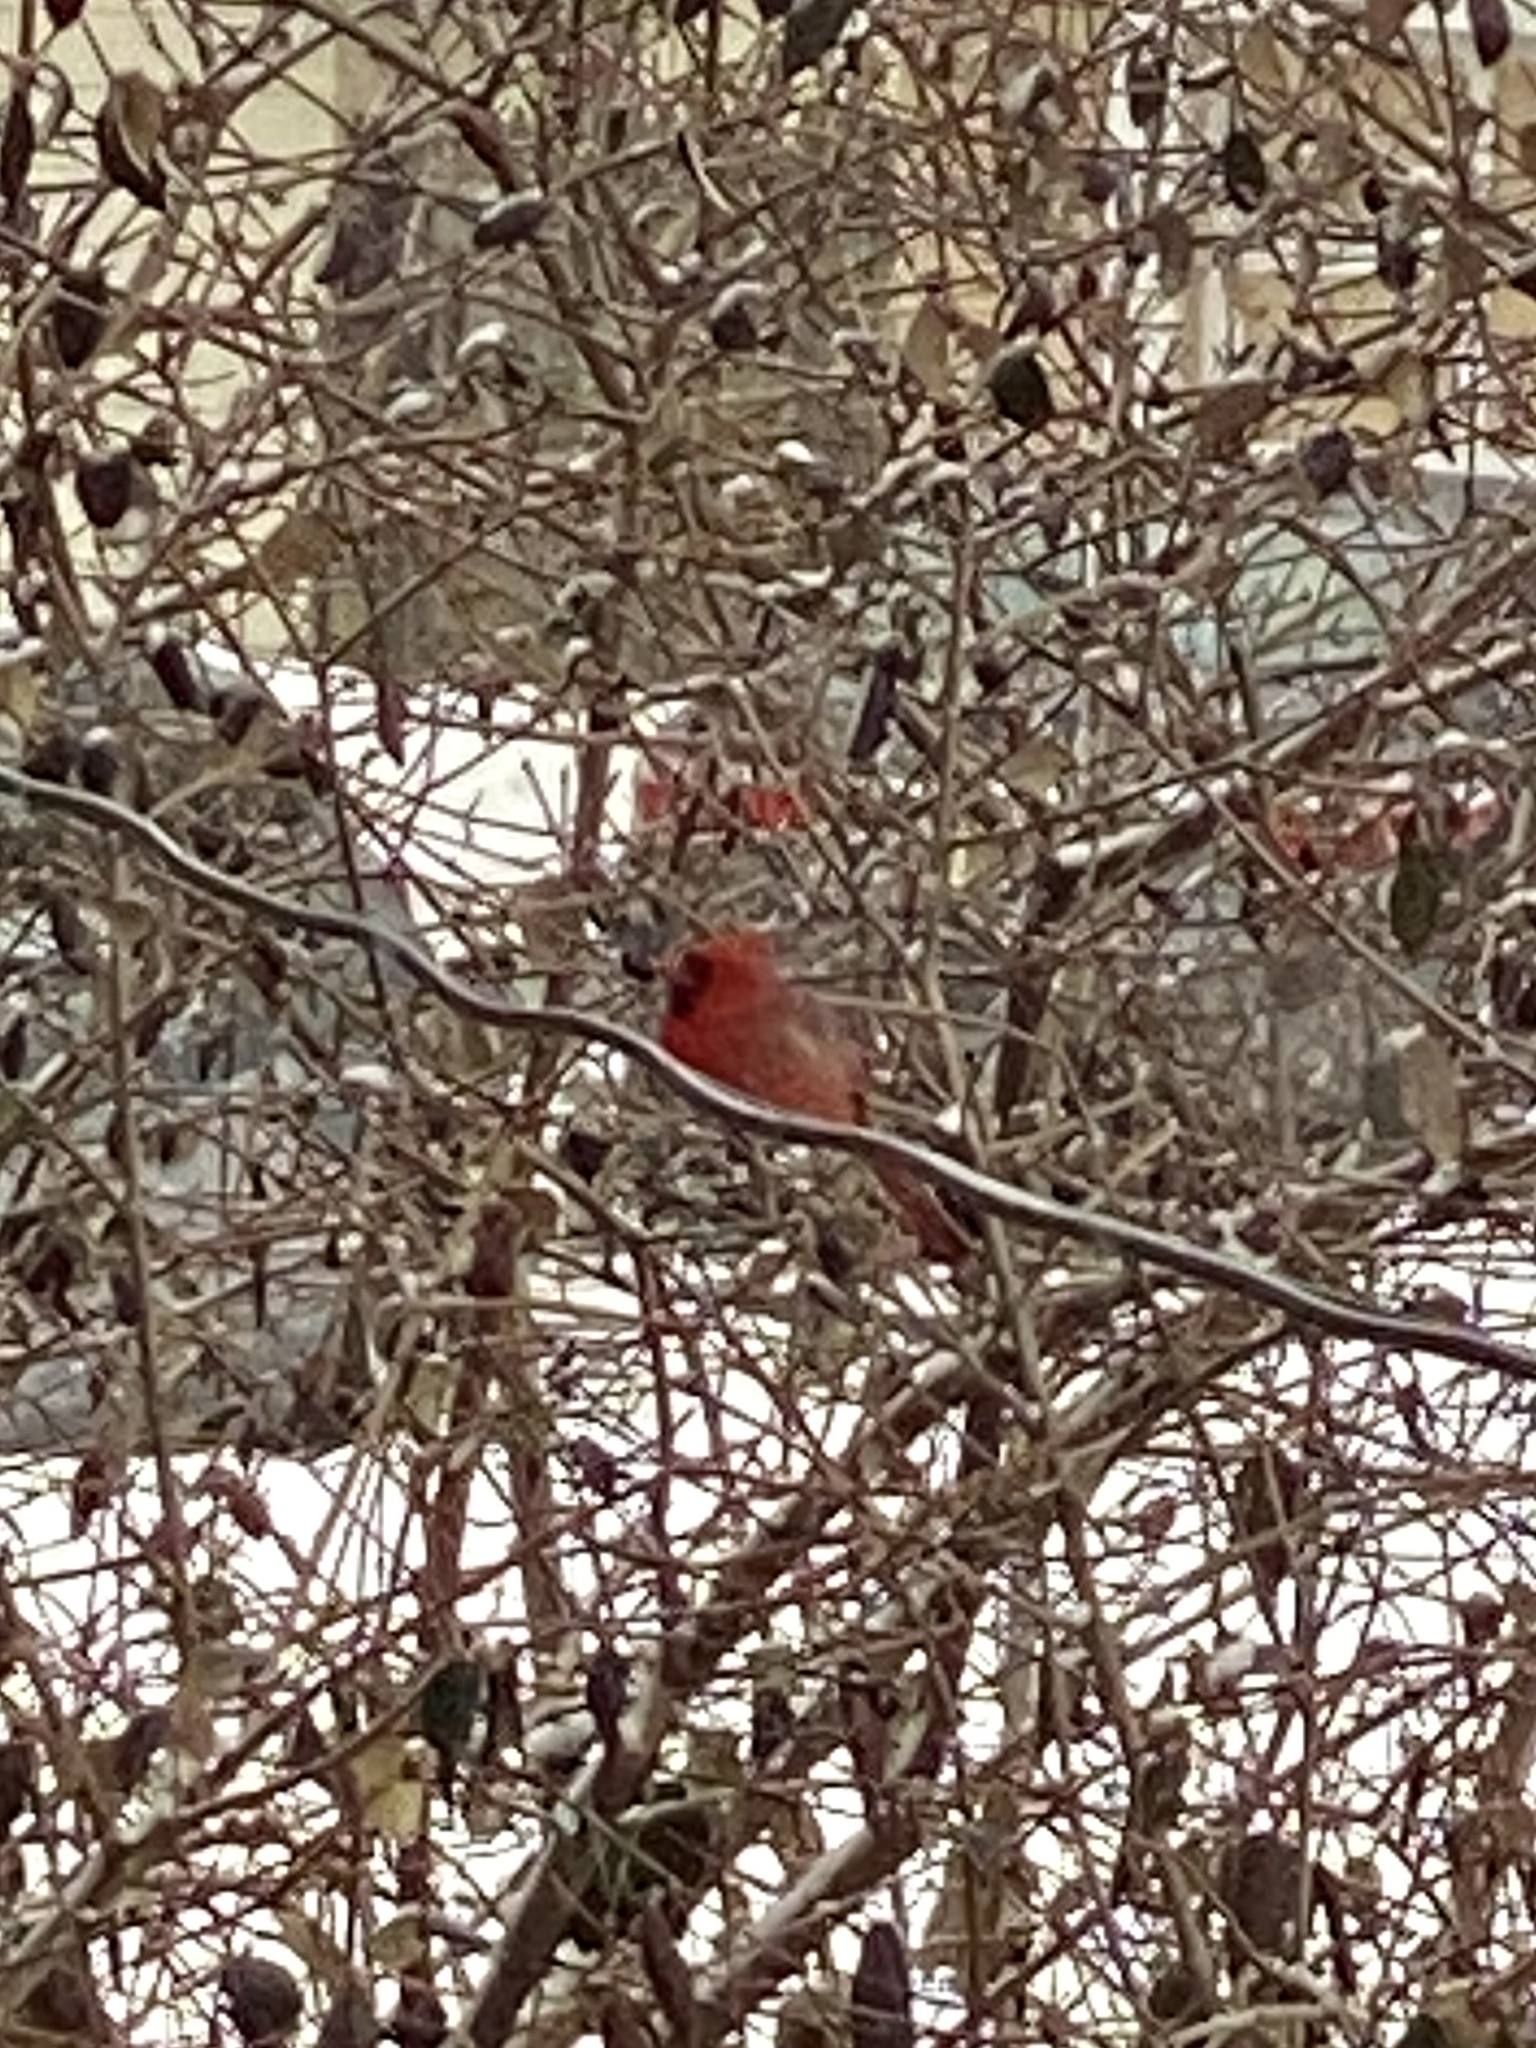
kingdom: Animalia
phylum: Chordata
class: Aves
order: Passeriformes
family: Cardinalidae
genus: Cardinalis
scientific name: Cardinalis cardinalis
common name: Northern cardinal
